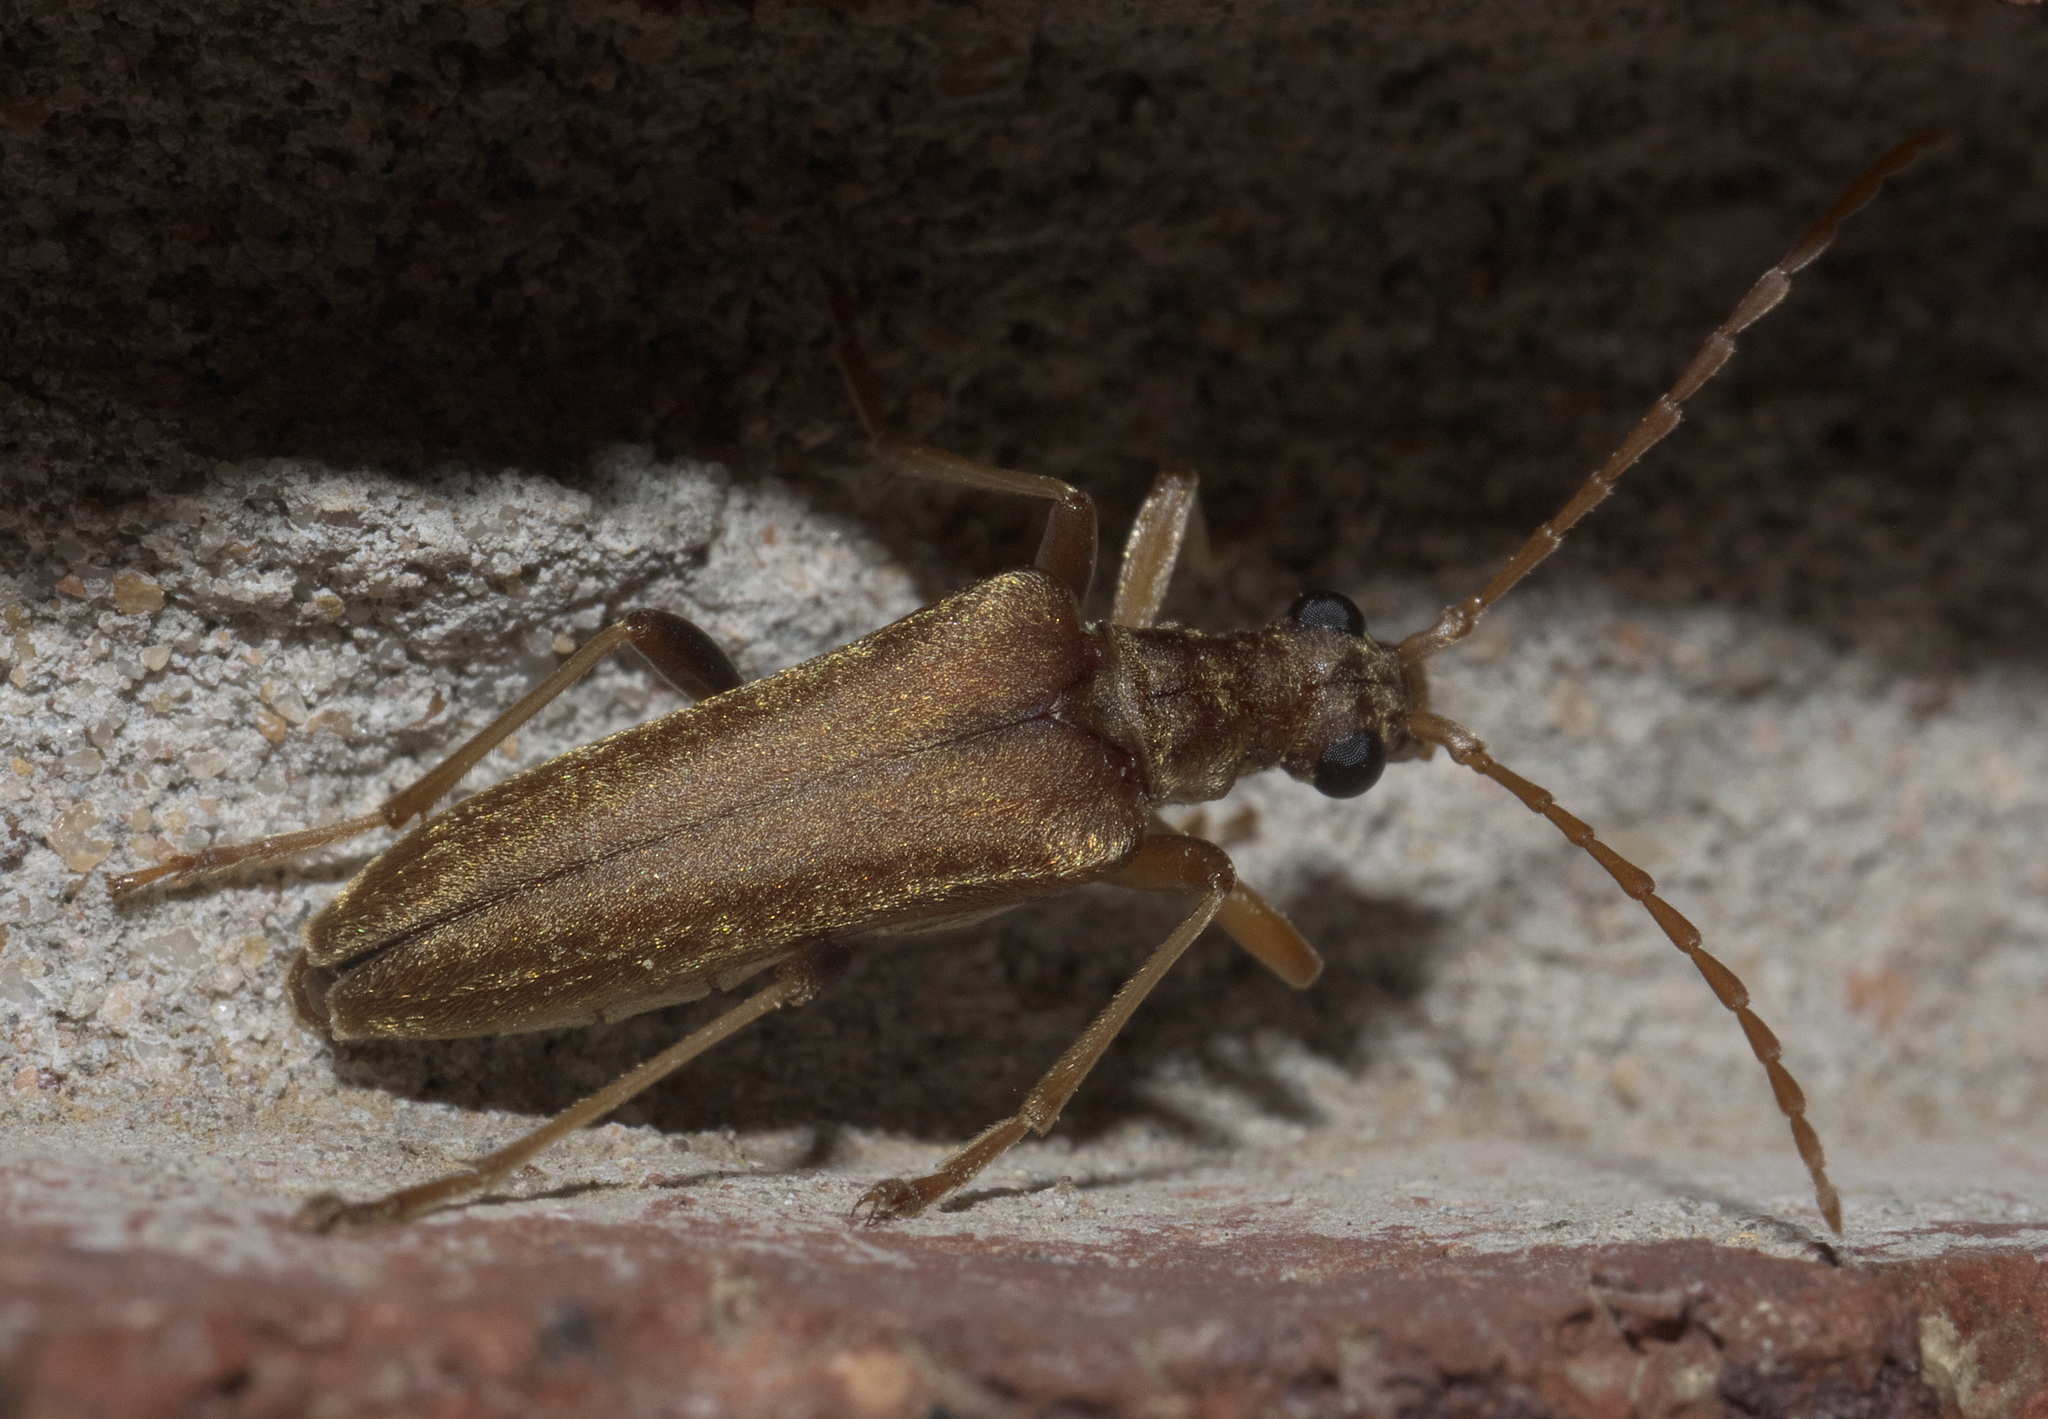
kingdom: Animalia
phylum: Arthropoda
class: Insecta
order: Coleoptera
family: Cerambycidae
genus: Stenocorus
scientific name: Stenocorus cinnamopterus
